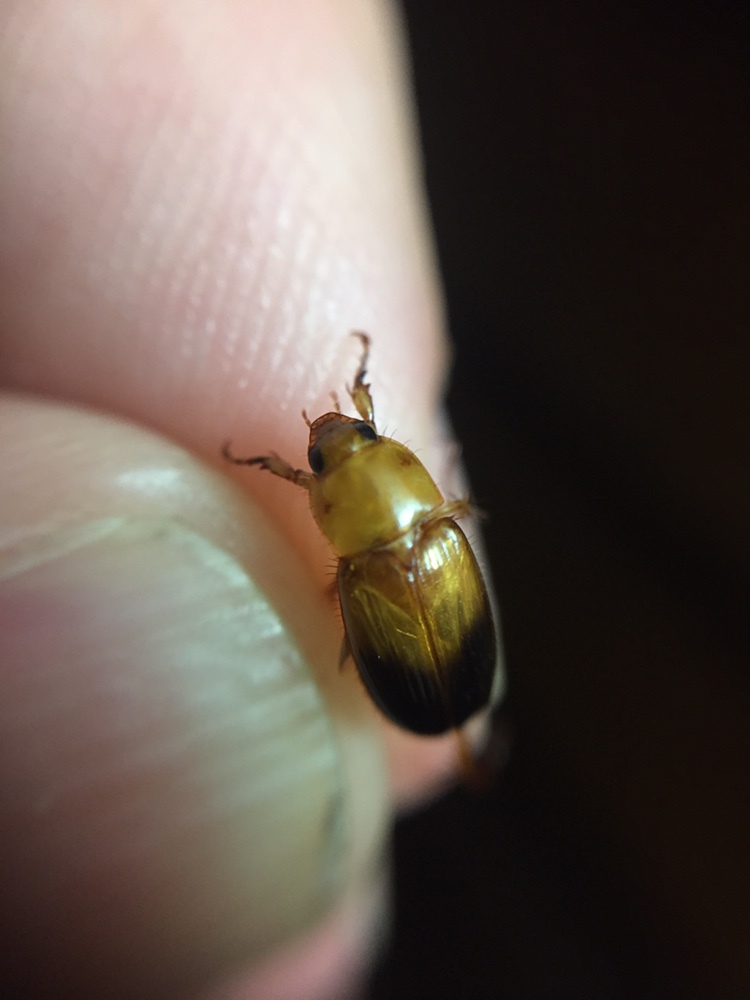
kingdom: Animalia
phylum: Arthropoda
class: Insecta
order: Coleoptera
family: Scarabaeidae
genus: Phyllotocus
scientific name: Phyllotocus macleayi
